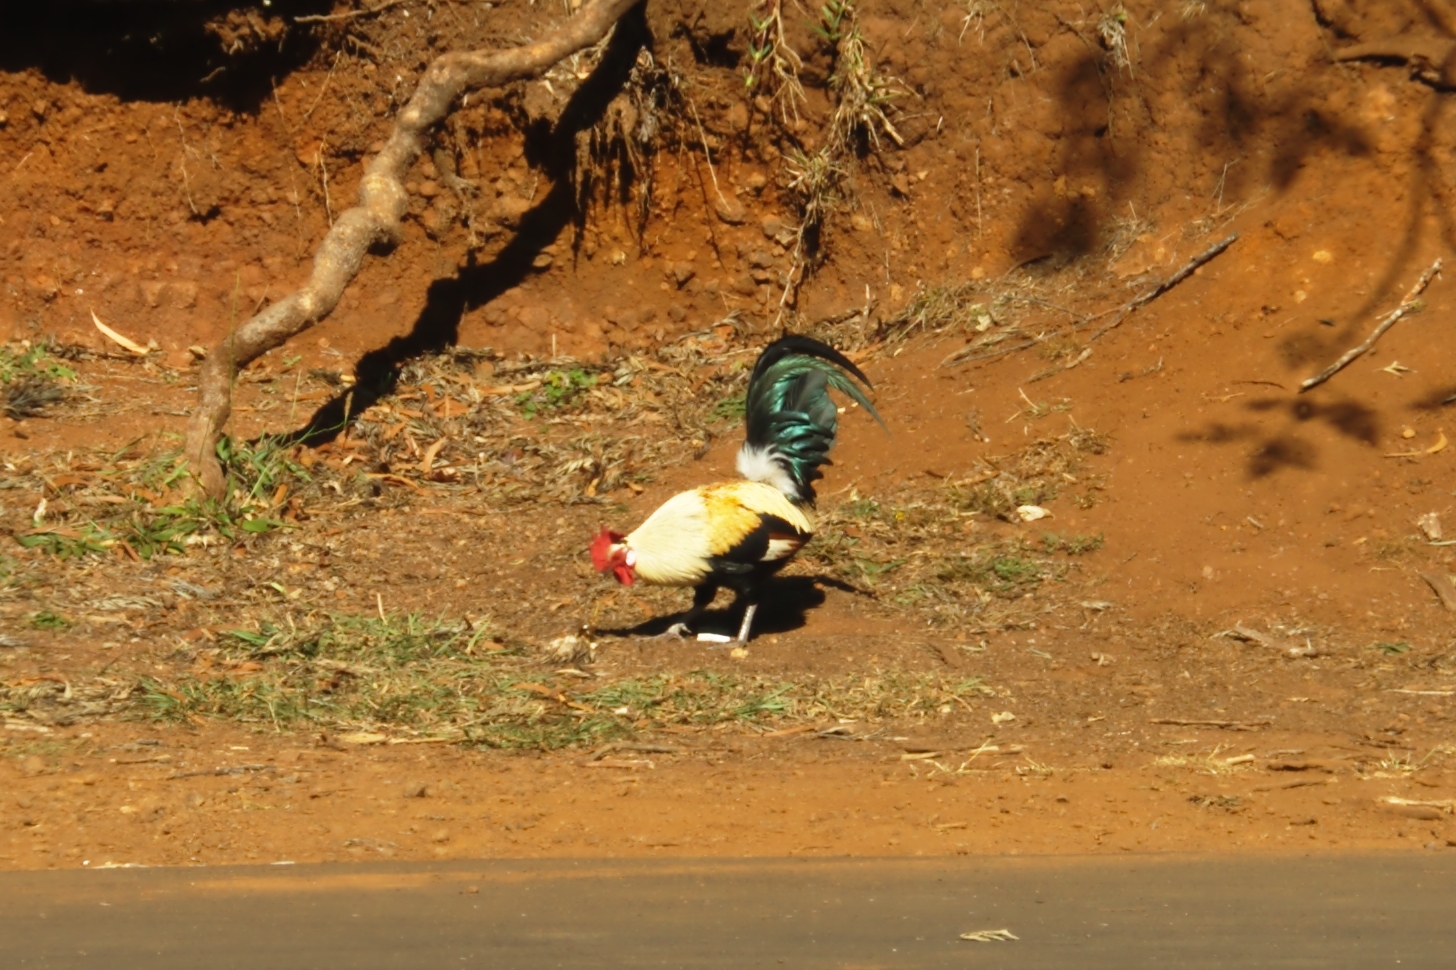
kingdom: Animalia
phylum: Chordata
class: Aves
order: Galliformes
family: Phasianidae
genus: Gallus
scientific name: Gallus gallus
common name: Red junglefowl
